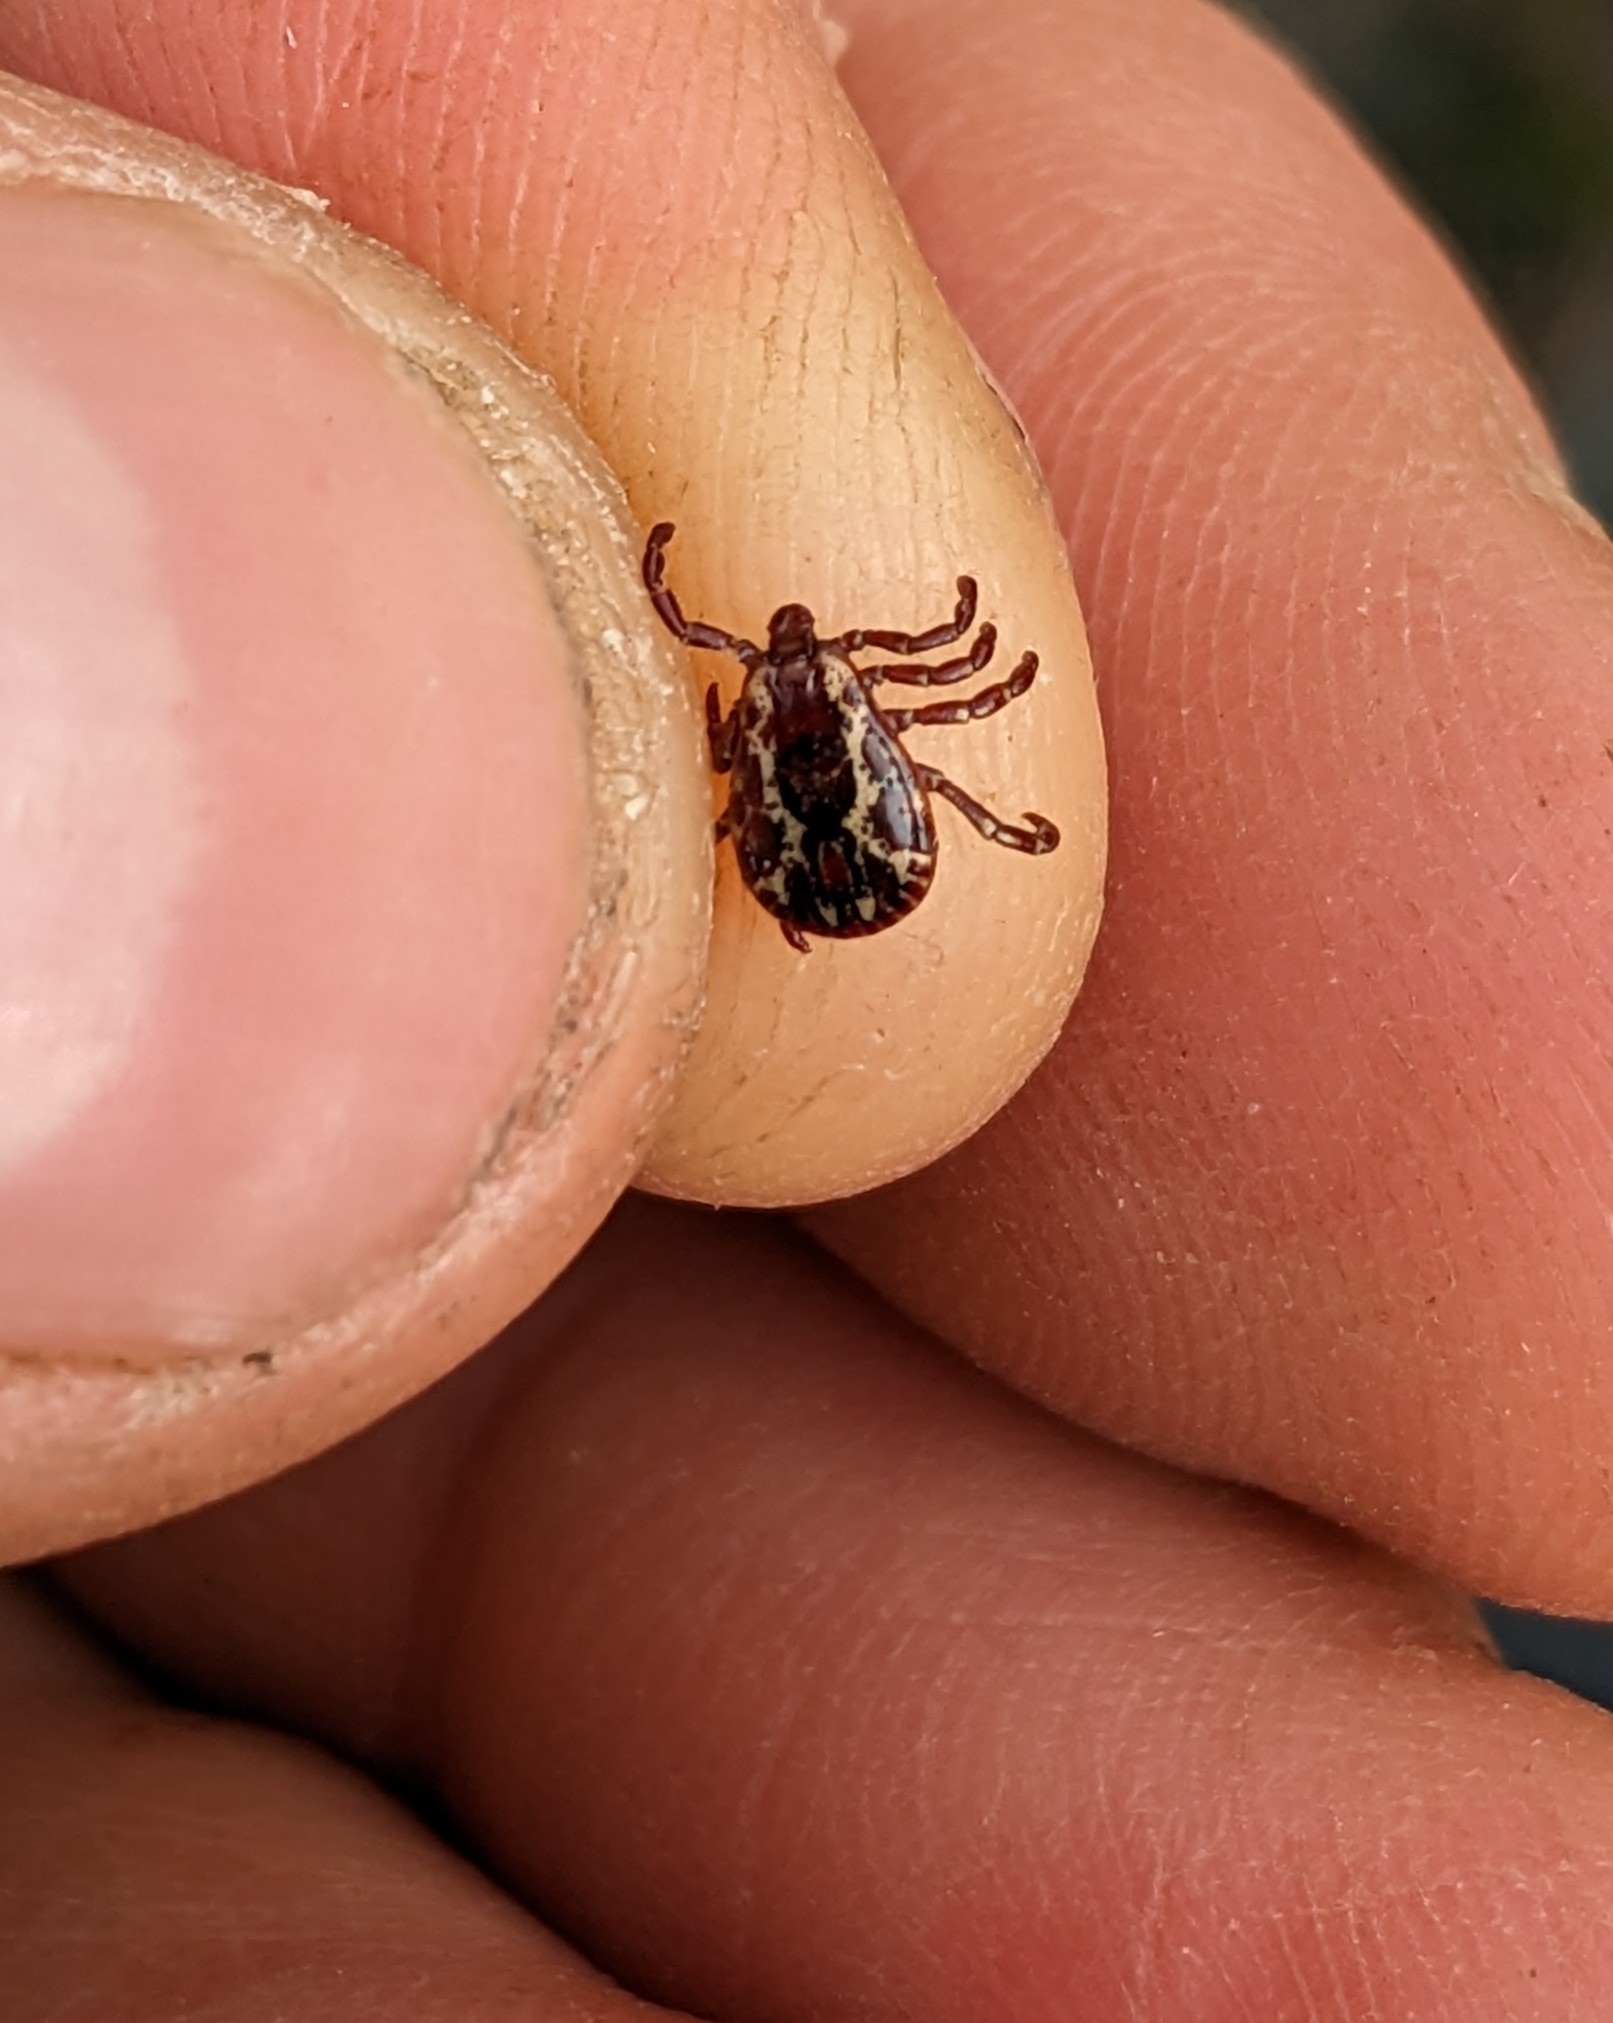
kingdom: Animalia
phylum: Arthropoda
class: Arachnida
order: Ixodida
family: Ixodidae
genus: Dermacentor
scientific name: Dermacentor variabilis
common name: American dog tick
